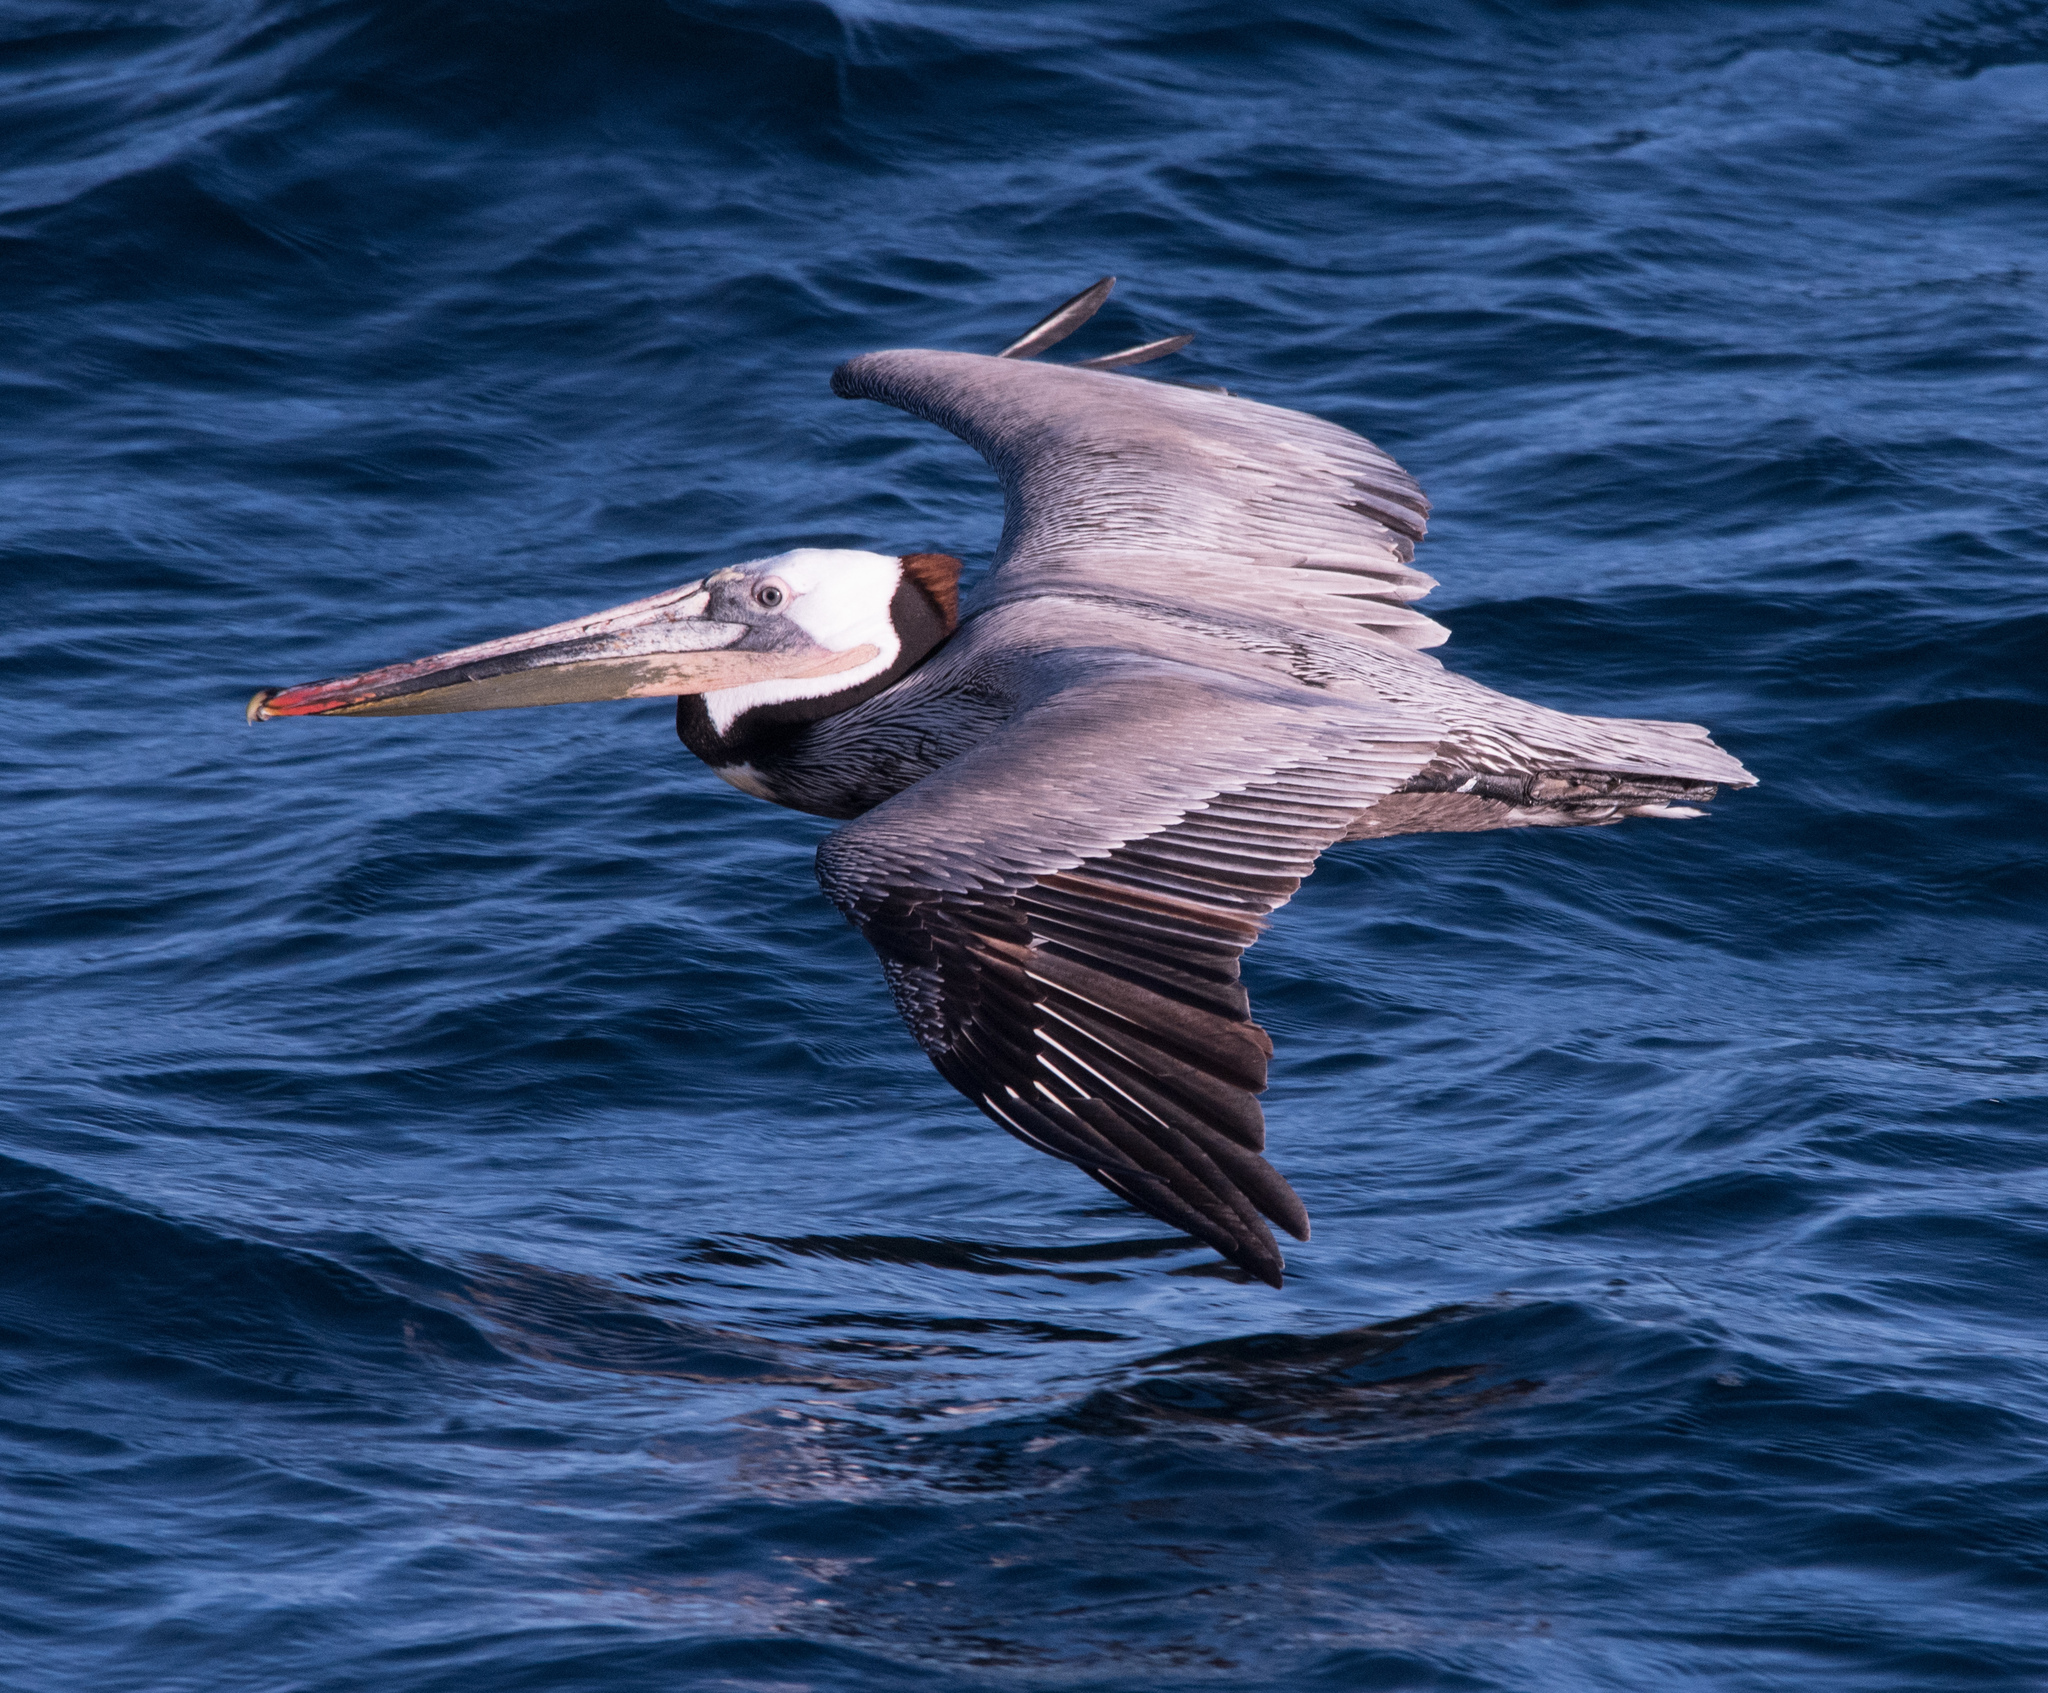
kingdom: Animalia
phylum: Chordata
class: Aves
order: Pelecaniformes
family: Pelecanidae
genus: Pelecanus
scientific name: Pelecanus occidentalis
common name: Brown pelican
